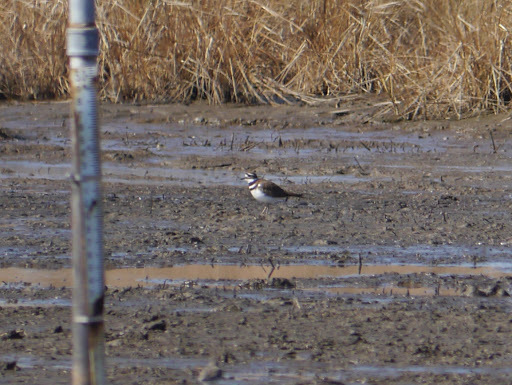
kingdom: Animalia
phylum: Chordata
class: Aves
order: Charadriiformes
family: Charadriidae
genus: Charadrius
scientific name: Charadrius vociferus
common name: Killdeer
